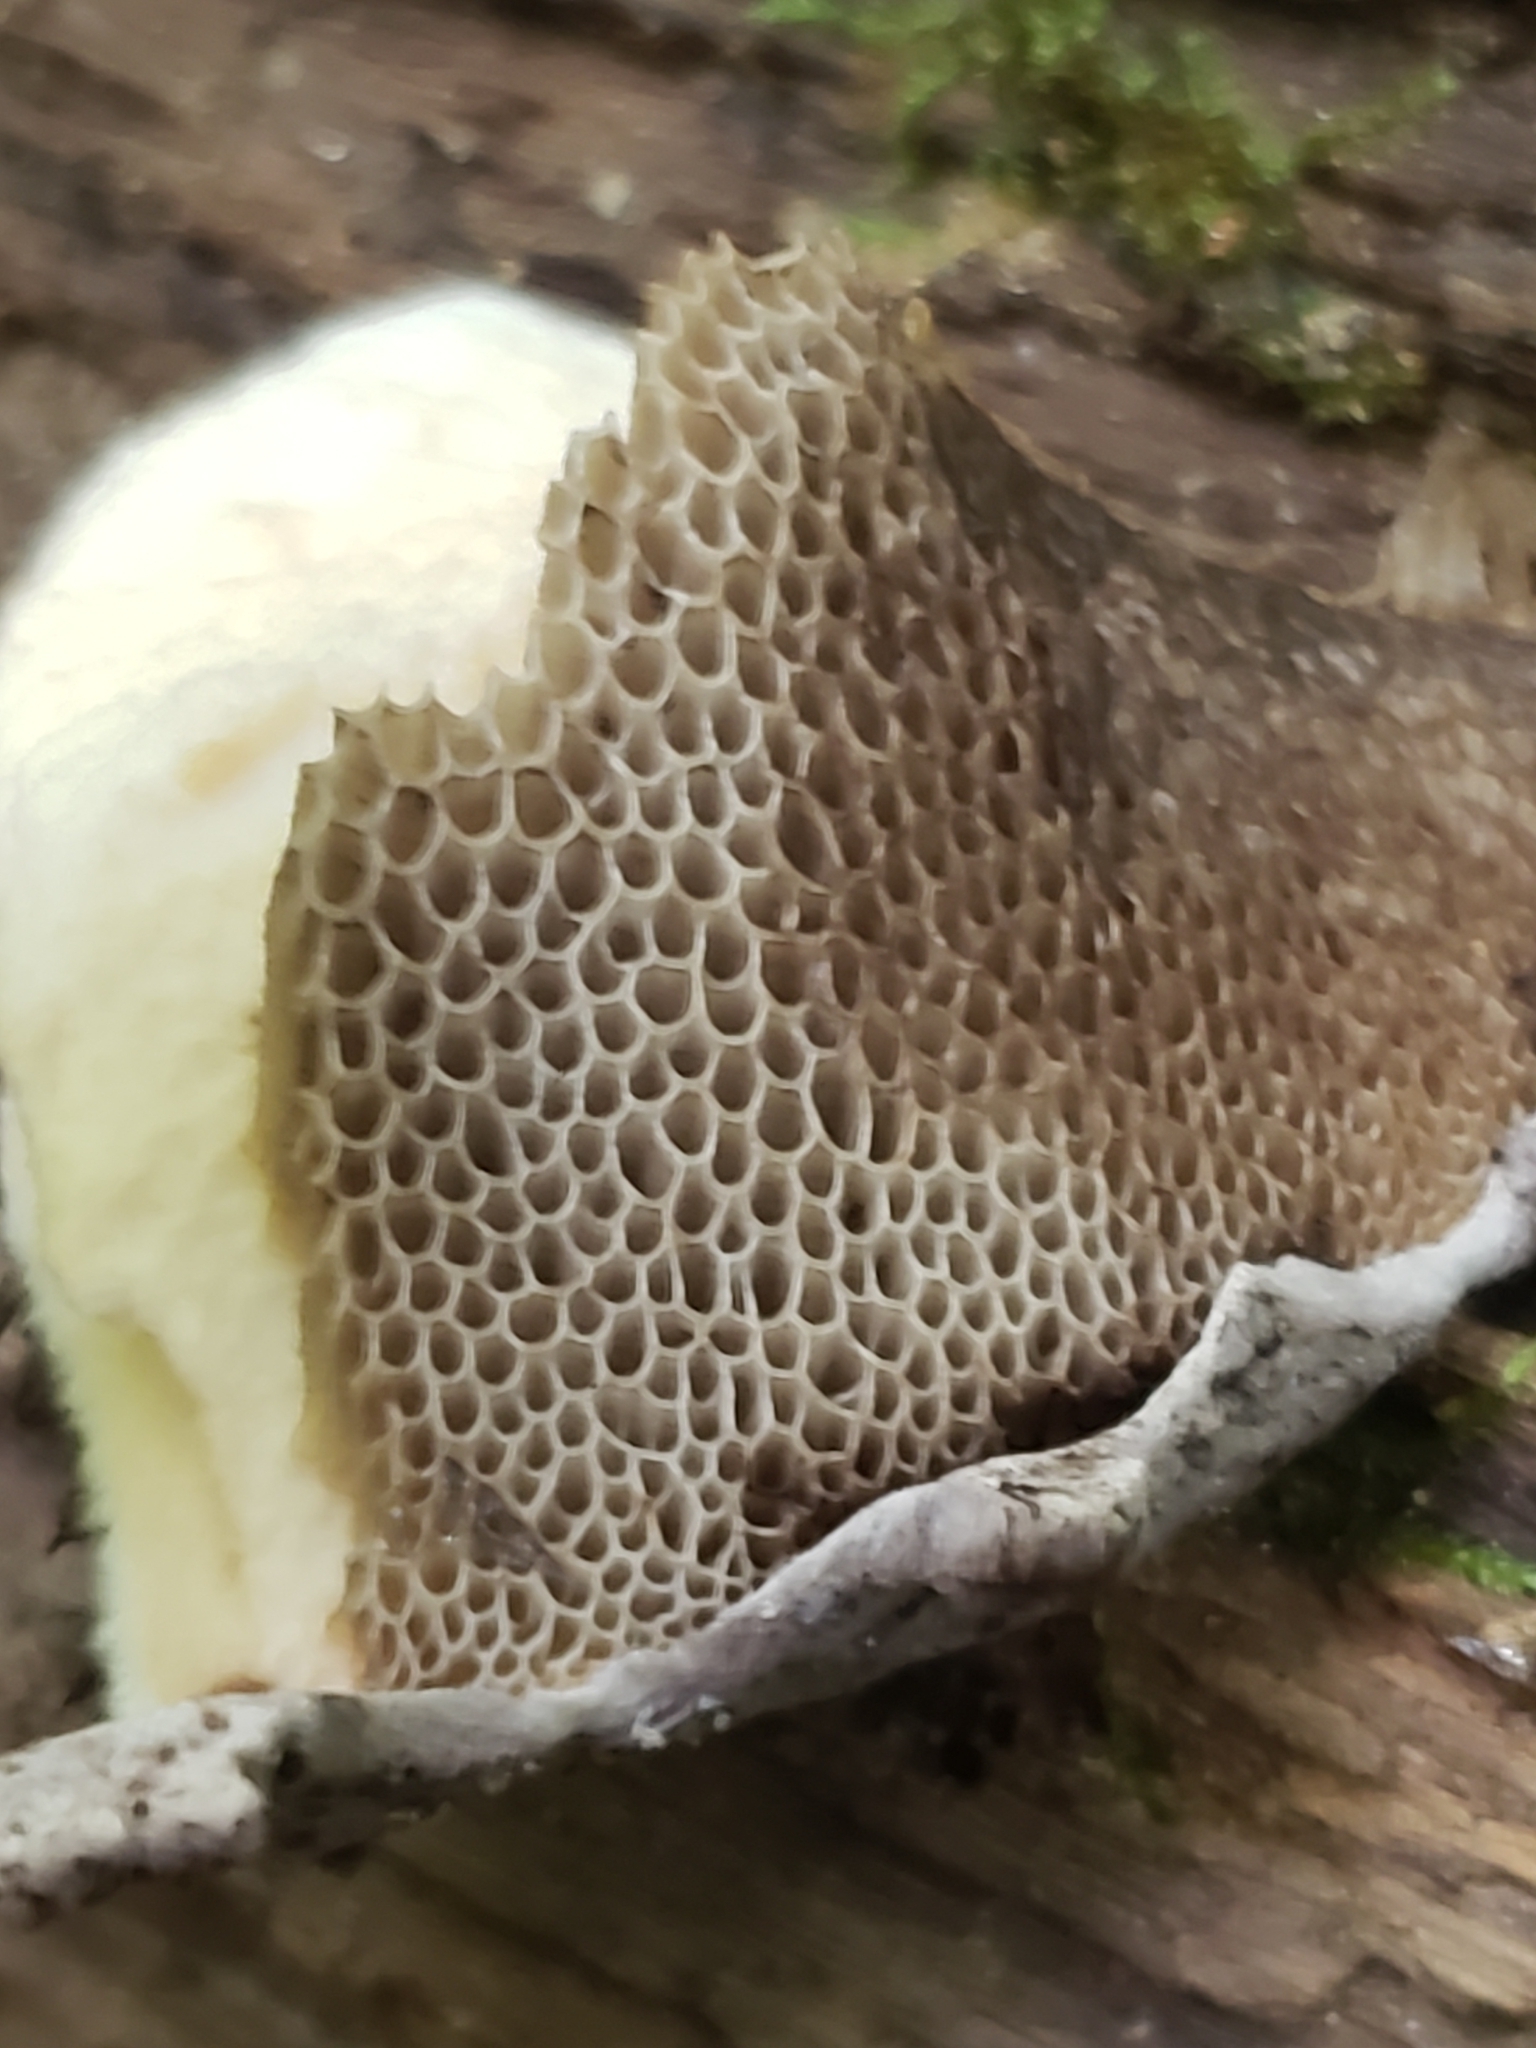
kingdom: Fungi
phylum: Basidiomycota
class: Agaricomycetes
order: Boletales
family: Boletaceae
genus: Strobilomyces
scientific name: Strobilomyces strobilaceus
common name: Old man of the woods
